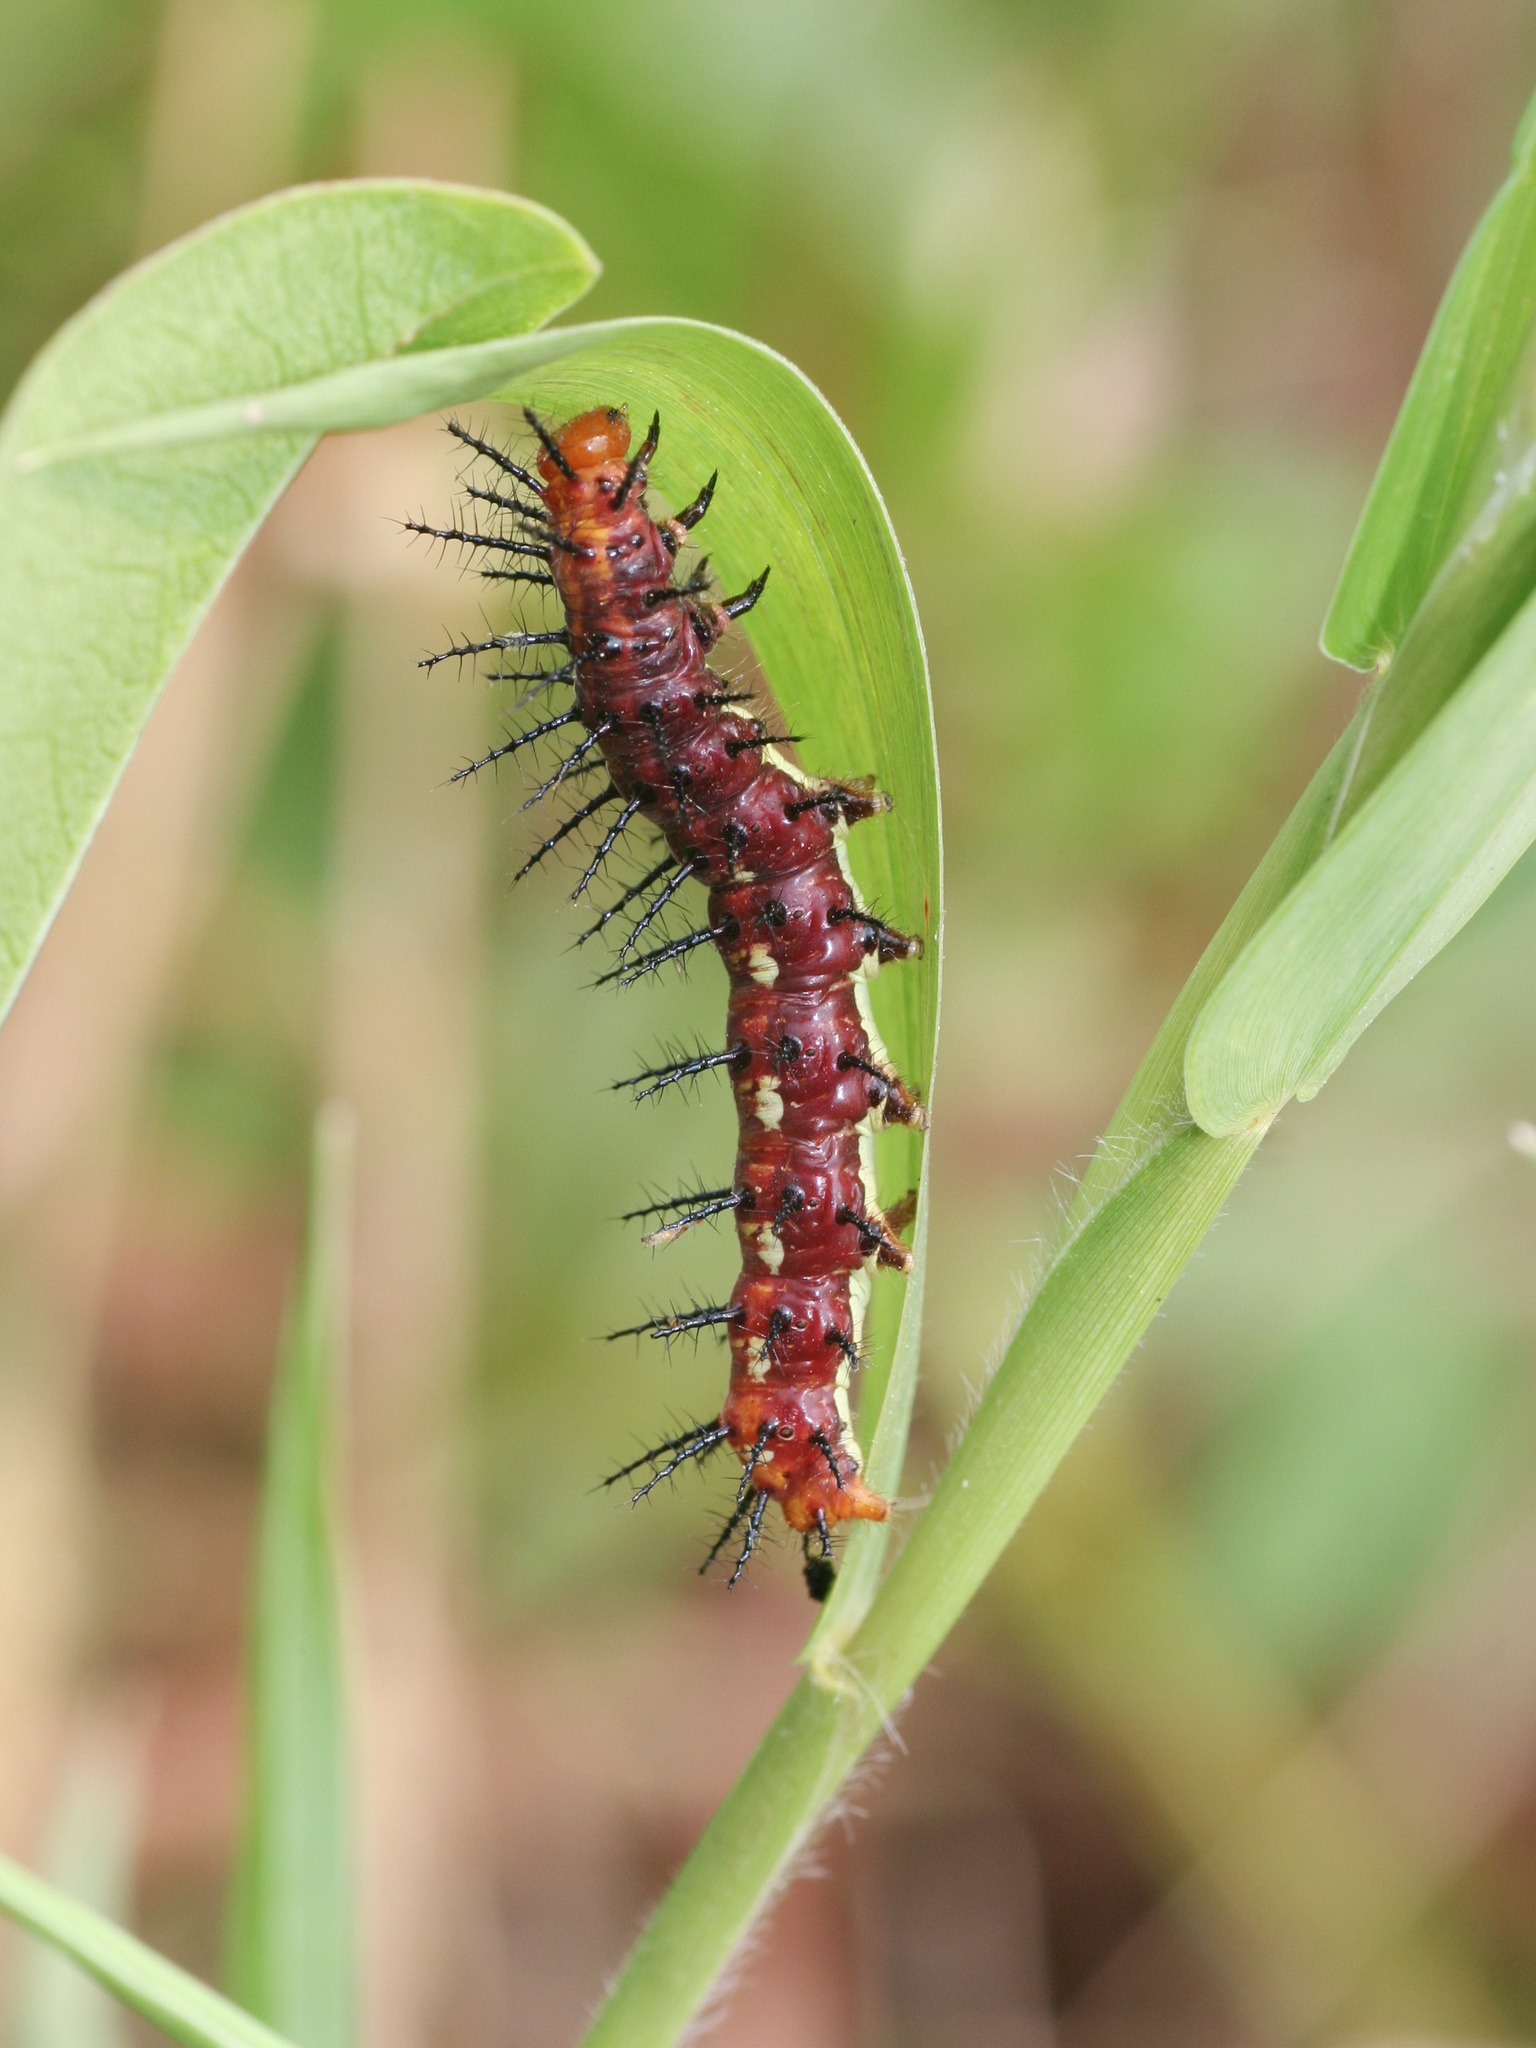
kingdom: Animalia
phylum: Arthropoda
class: Insecta
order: Lepidoptera
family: Nymphalidae
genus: Acraea
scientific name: Acraea terpsicore
